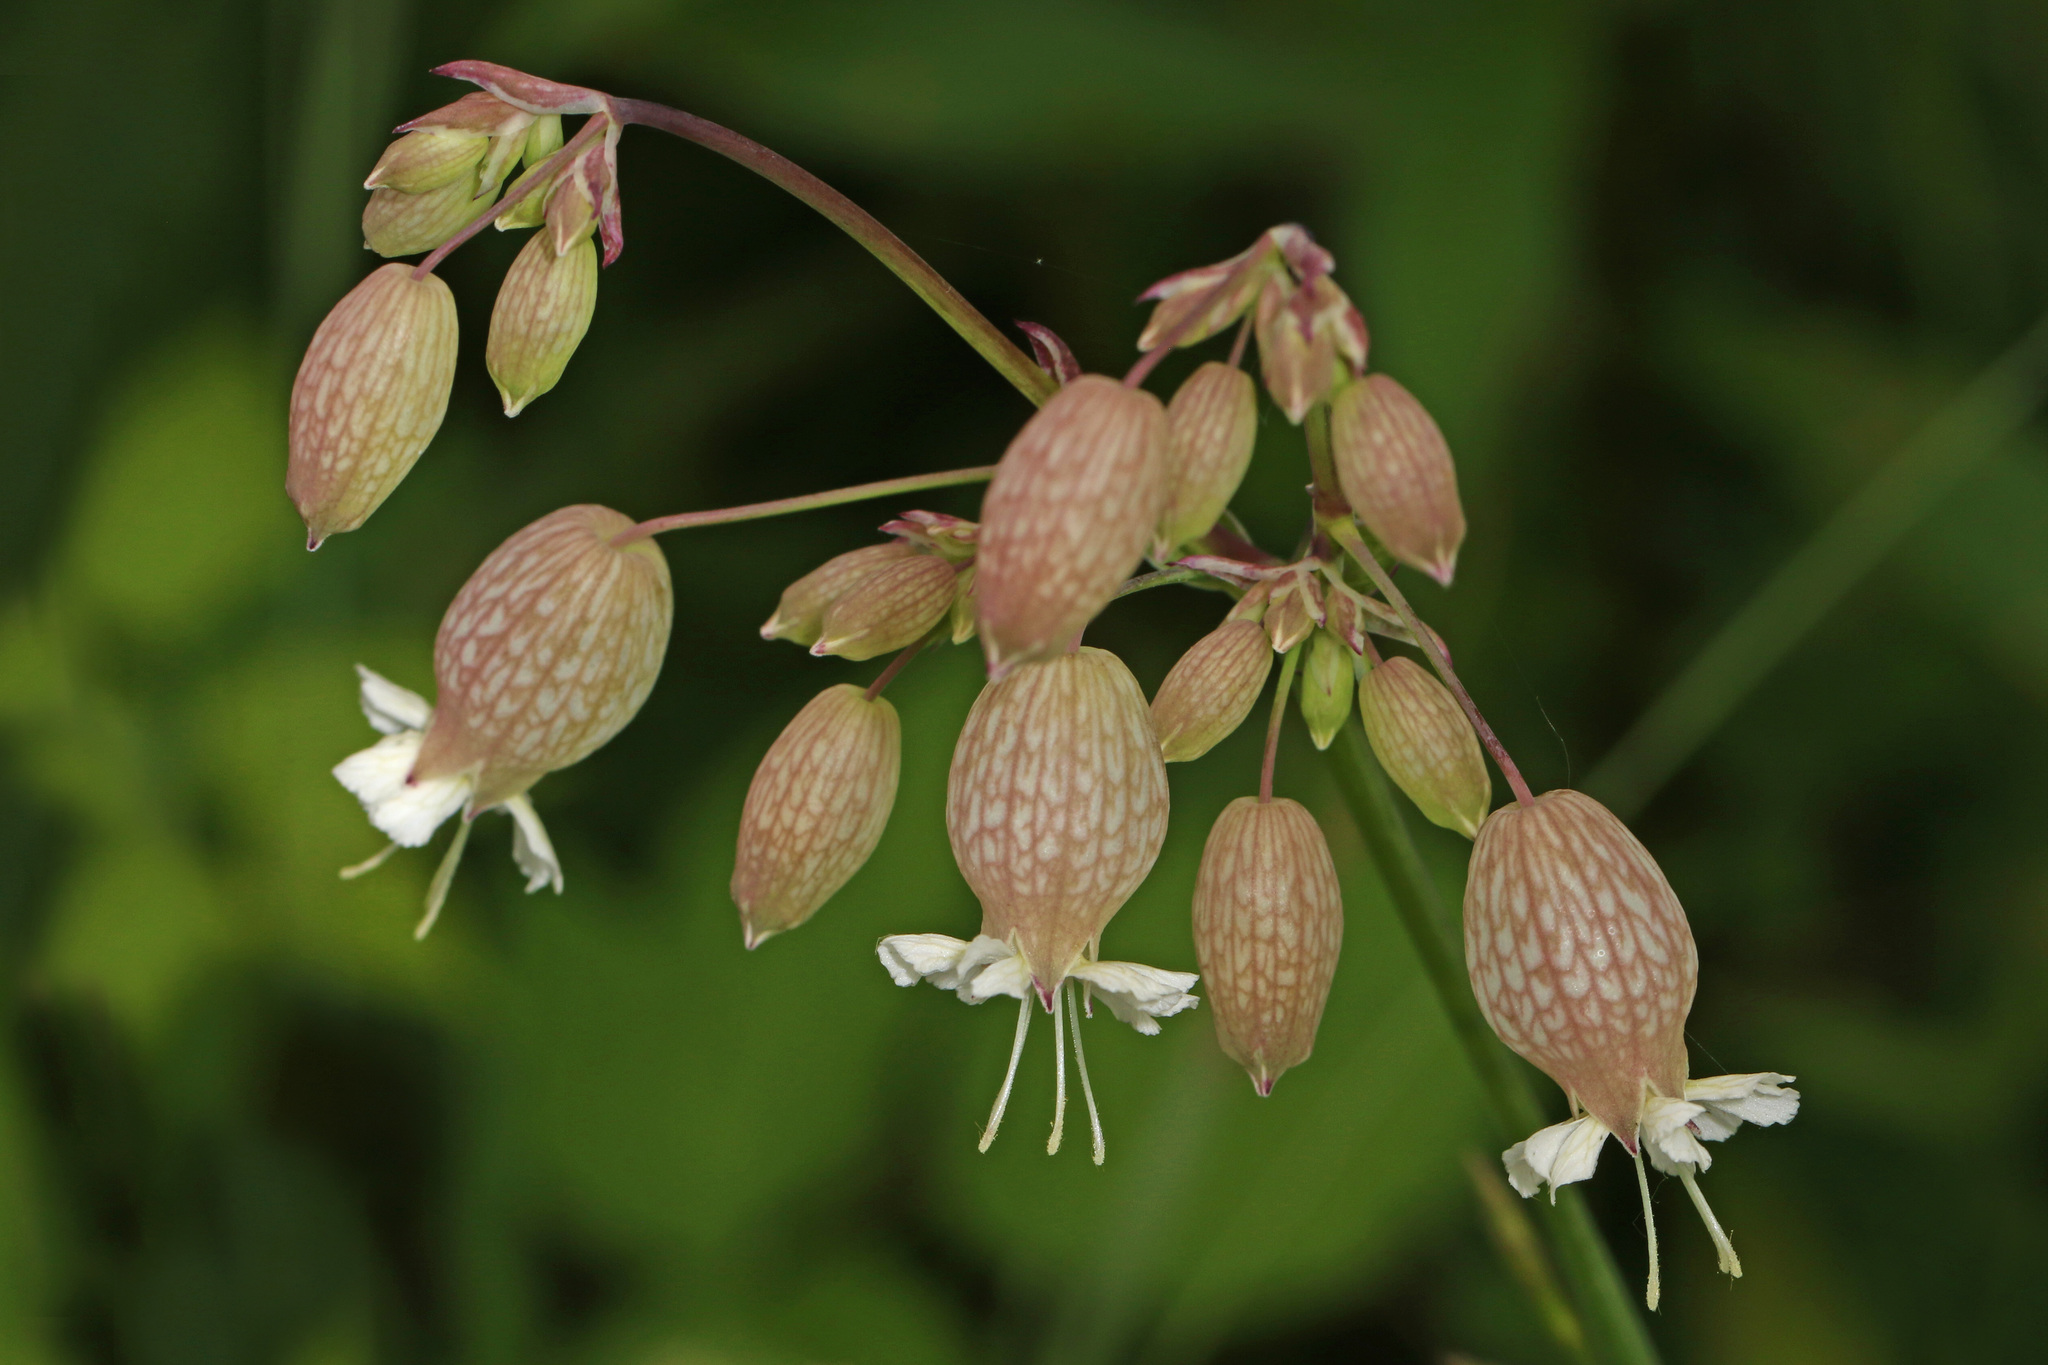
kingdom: Plantae
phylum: Tracheophyta
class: Magnoliopsida
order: Caryophyllales
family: Caryophyllaceae
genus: Silene
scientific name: Silene vulgaris
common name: Bladder campion
